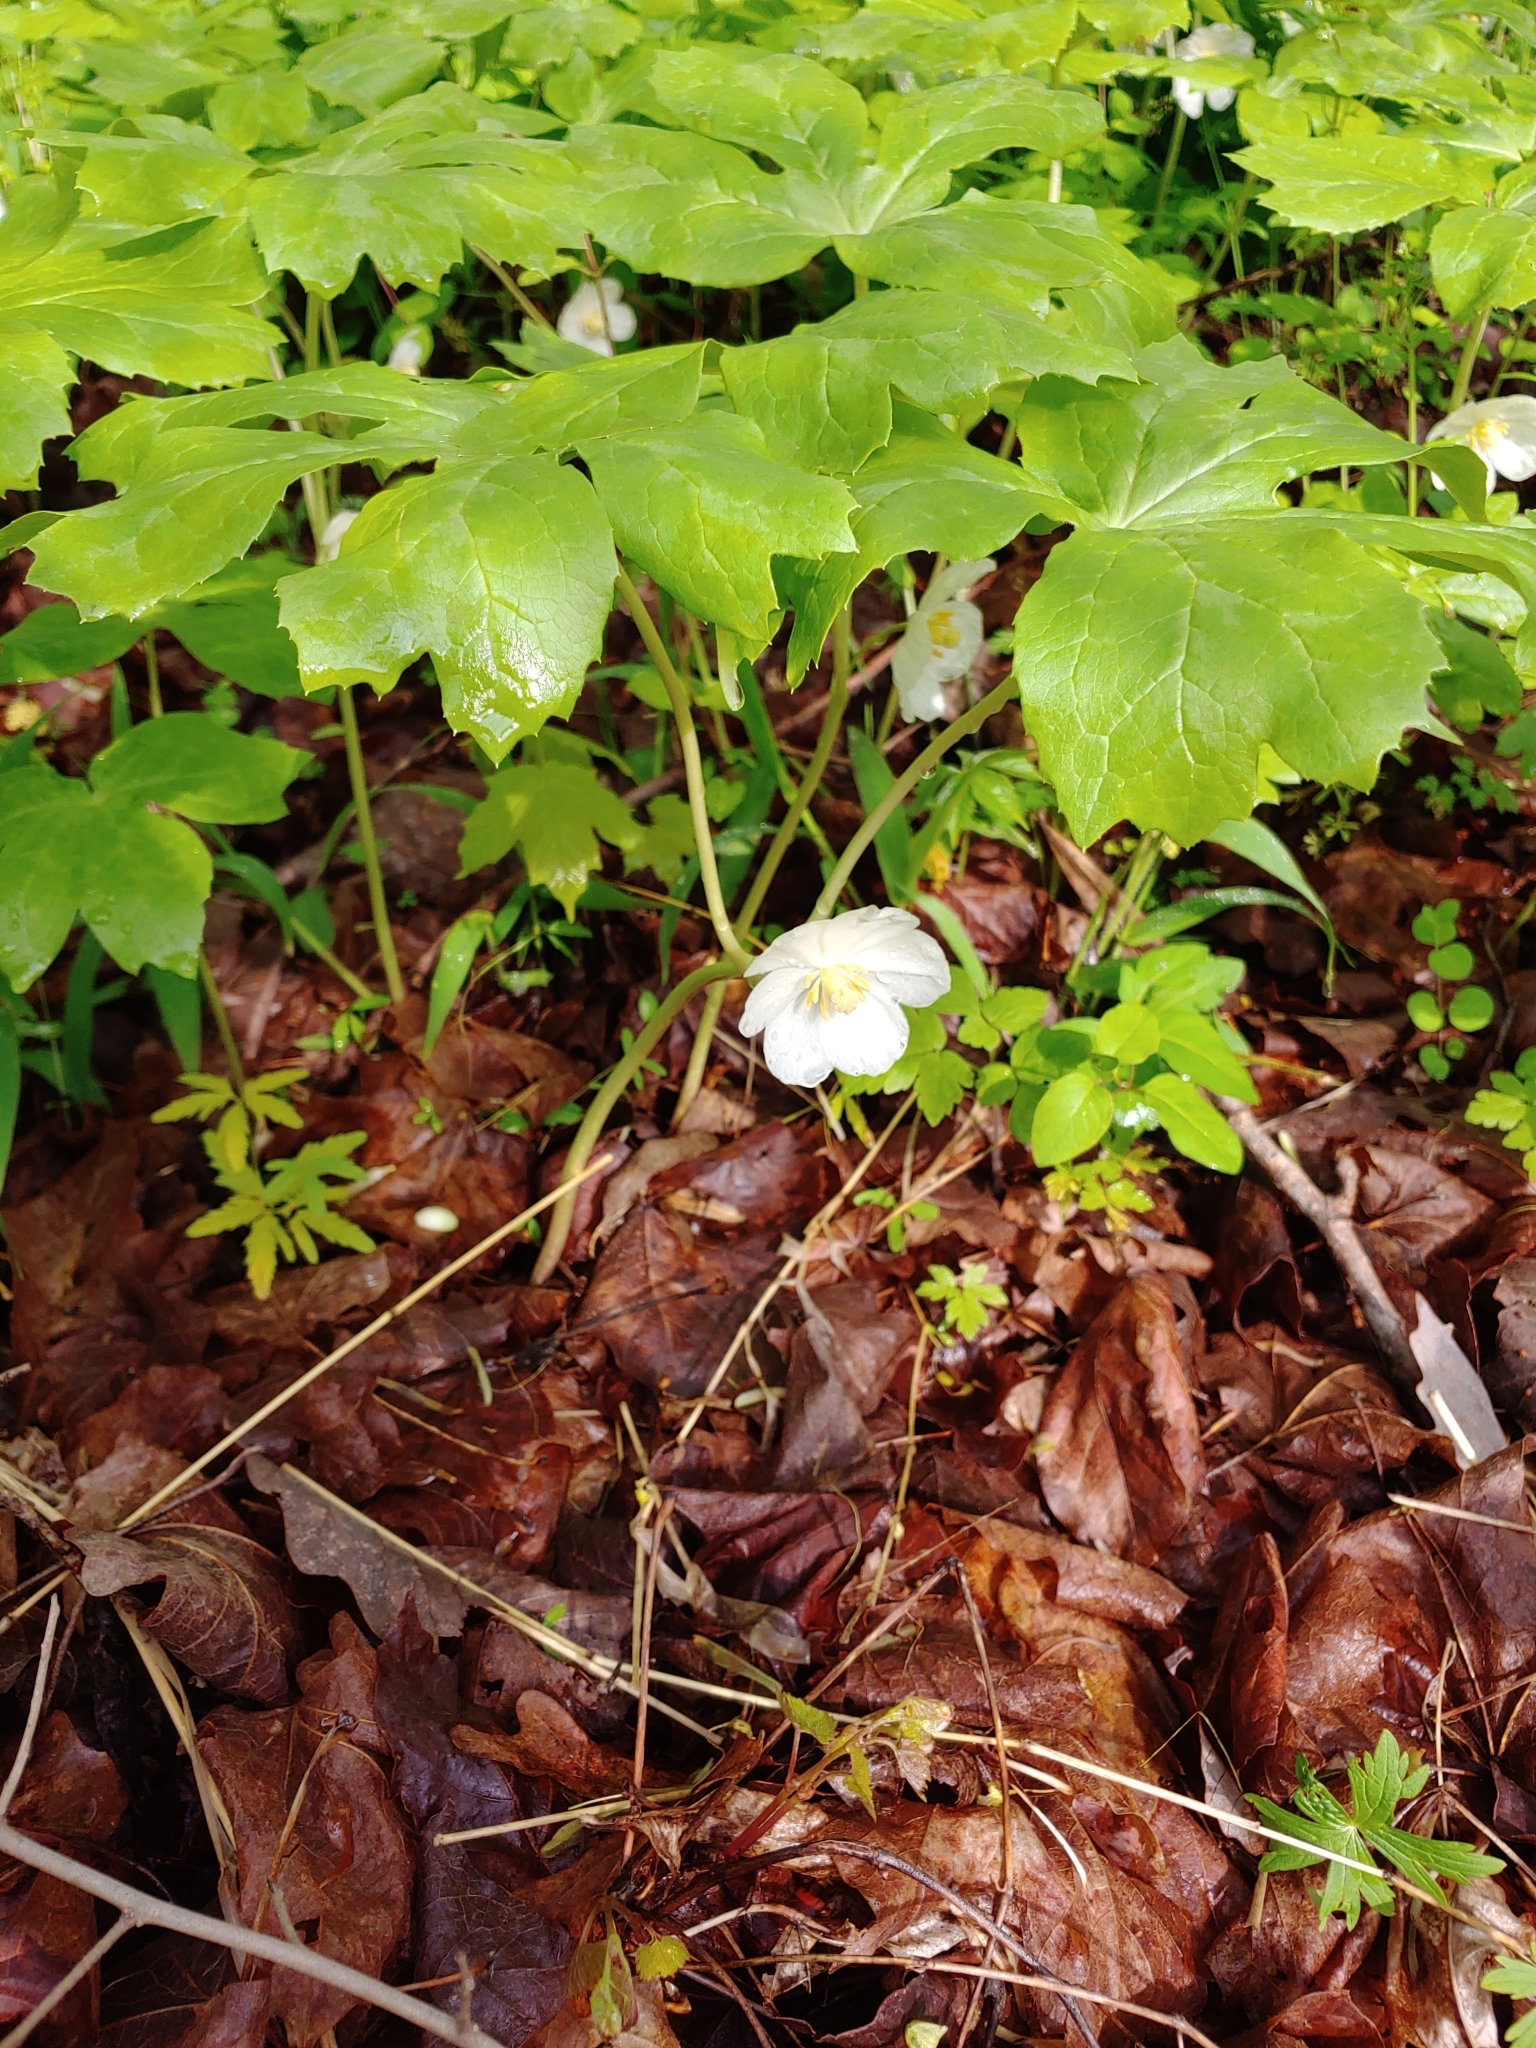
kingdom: Plantae
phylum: Tracheophyta
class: Magnoliopsida
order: Ranunculales
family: Berberidaceae
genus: Podophyllum
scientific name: Podophyllum peltatum
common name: Wild mandrake
